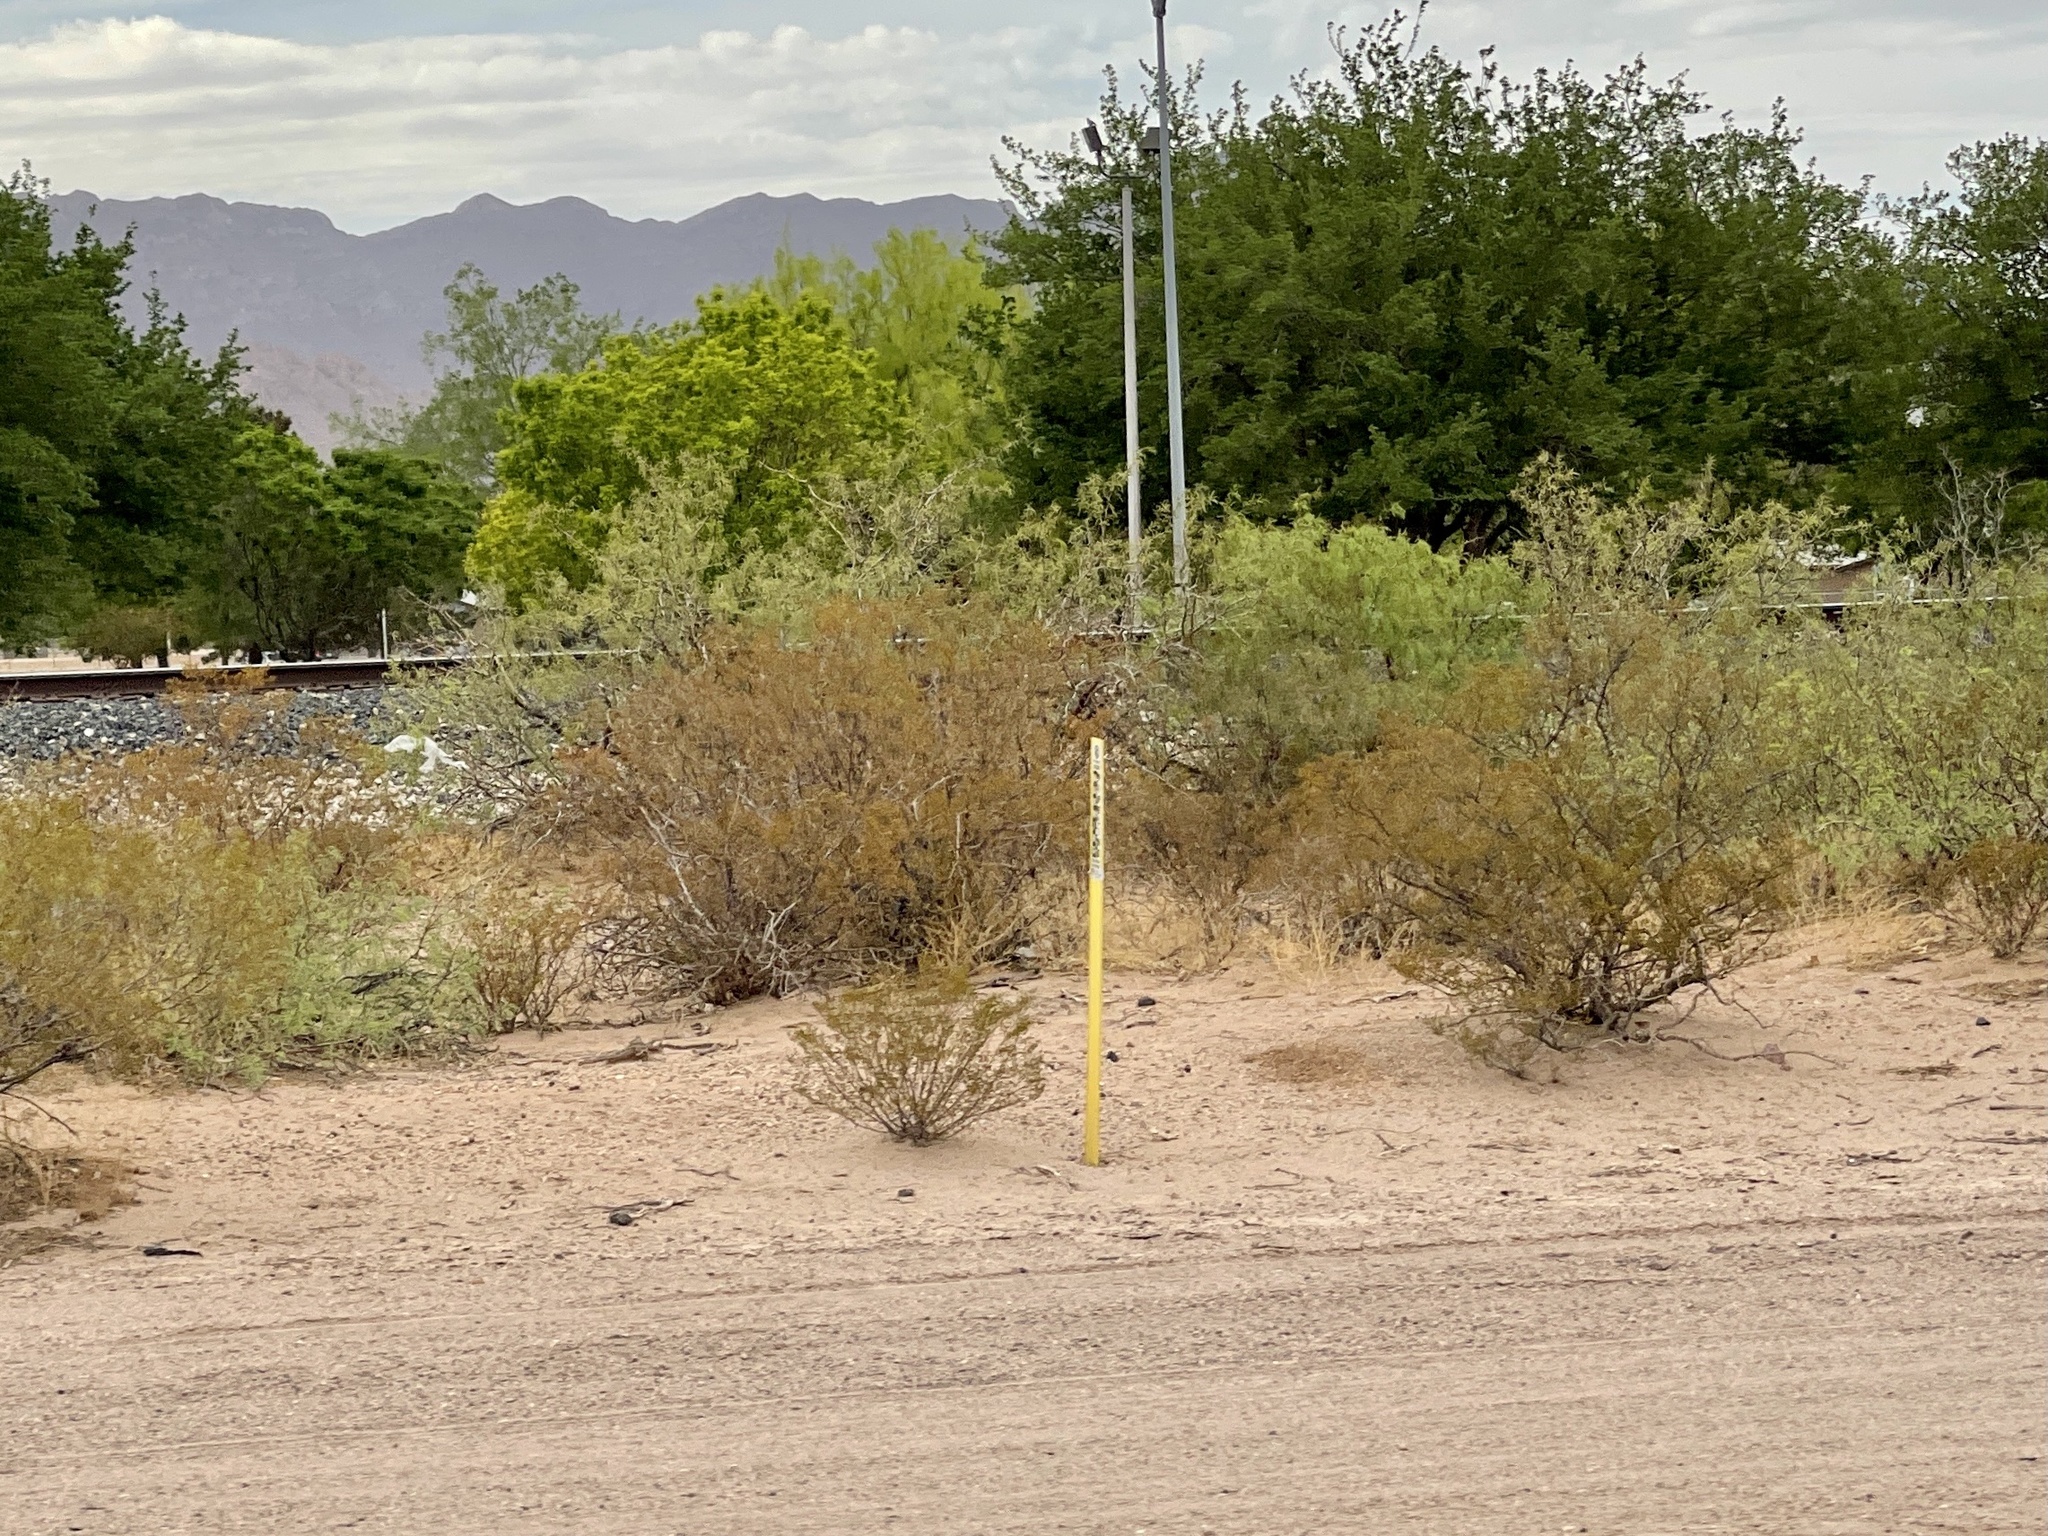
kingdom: Plantae
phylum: Tracheophyta
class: Magnoliopsida
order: Zygophyllales
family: Zygophyllaceae
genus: Larrea
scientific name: Larrea tridentata
